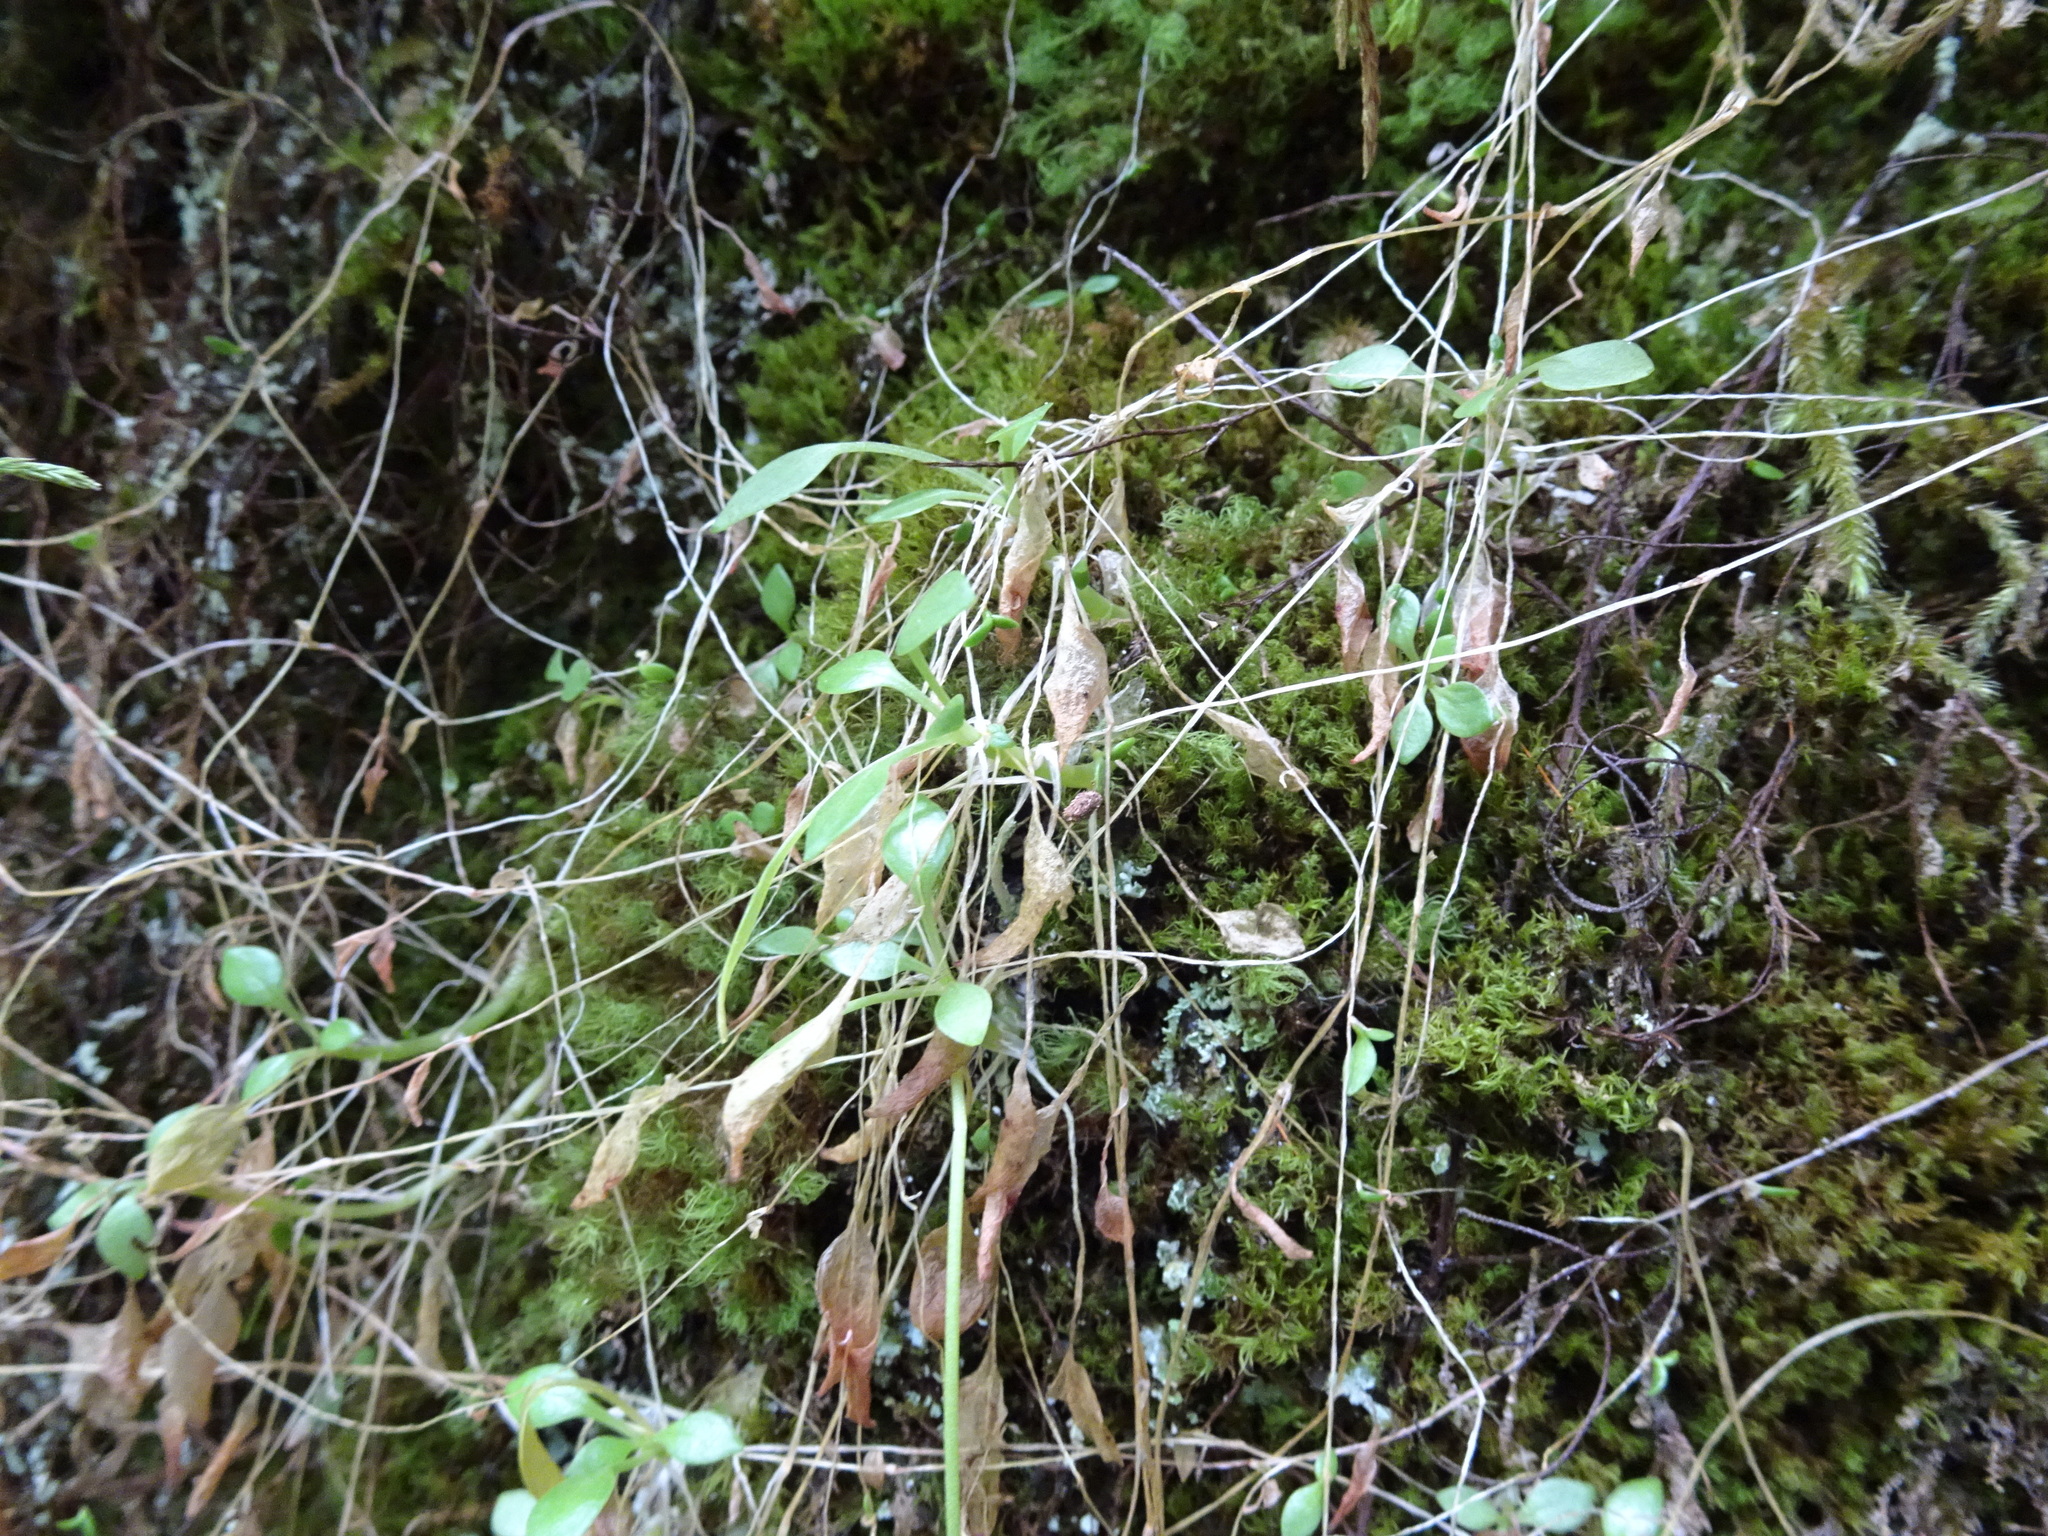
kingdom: Plantae
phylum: Tracheophyta
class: Magnoliopsida
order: Caryophyllales
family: Montiaceae
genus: Montia
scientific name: Montia parvifolia
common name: Small-leaved blinks
